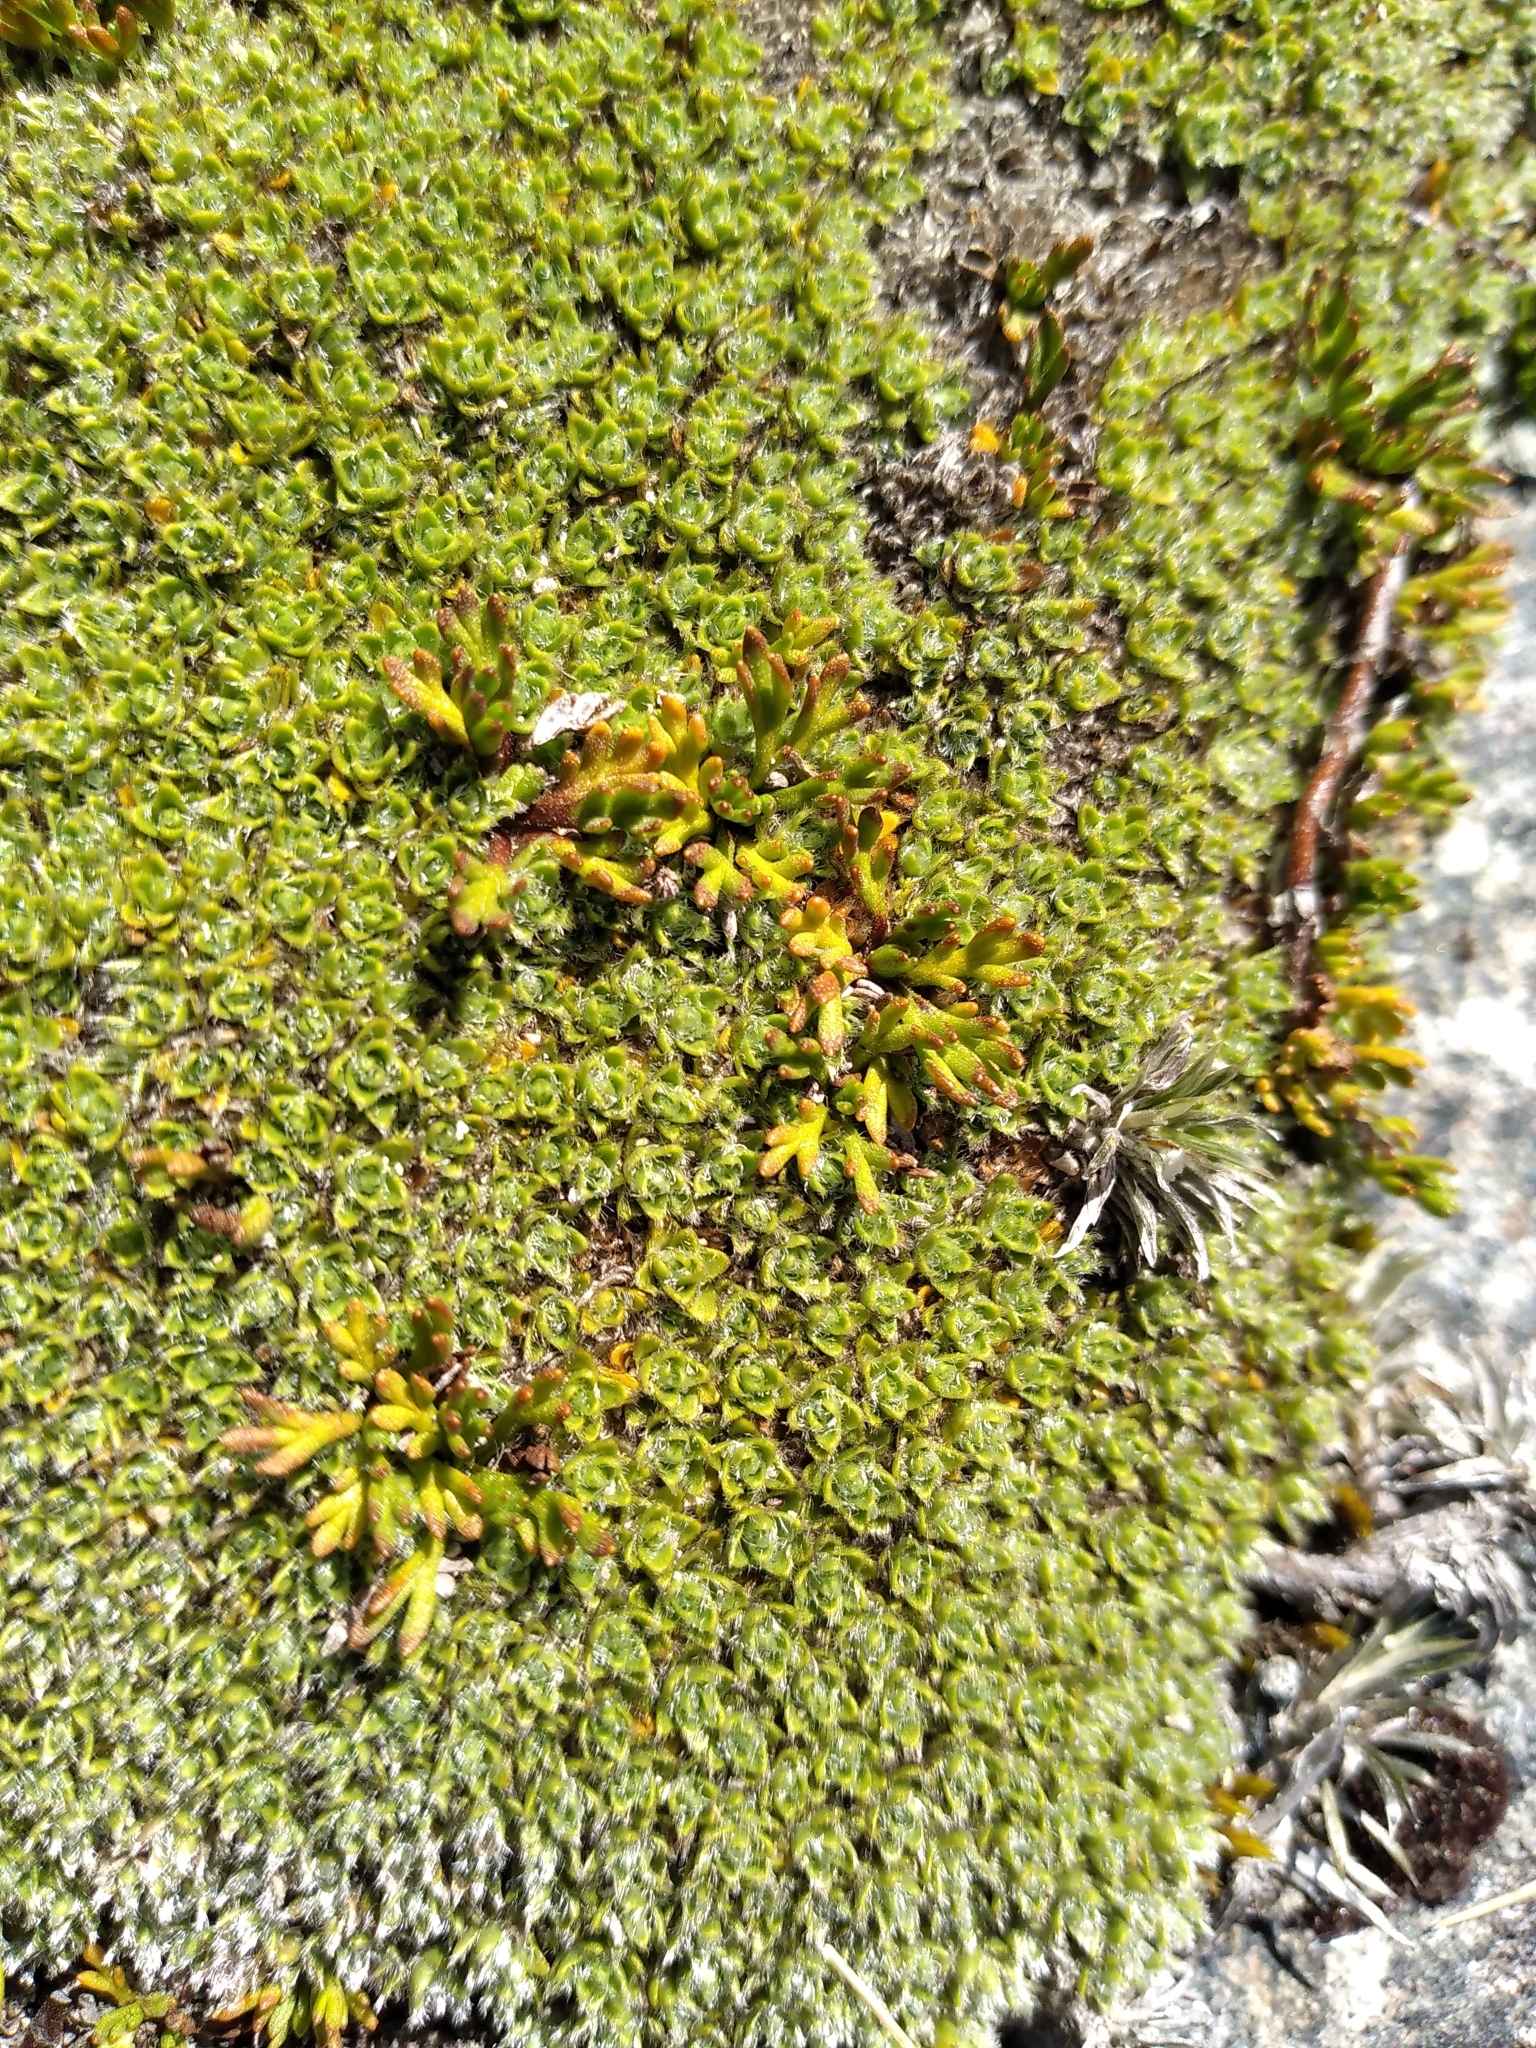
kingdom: Plantae
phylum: Tracheophyta
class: Magnoliopsida
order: Asterales
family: Asteraceae
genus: Leptinella
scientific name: Leptinella pectinata
